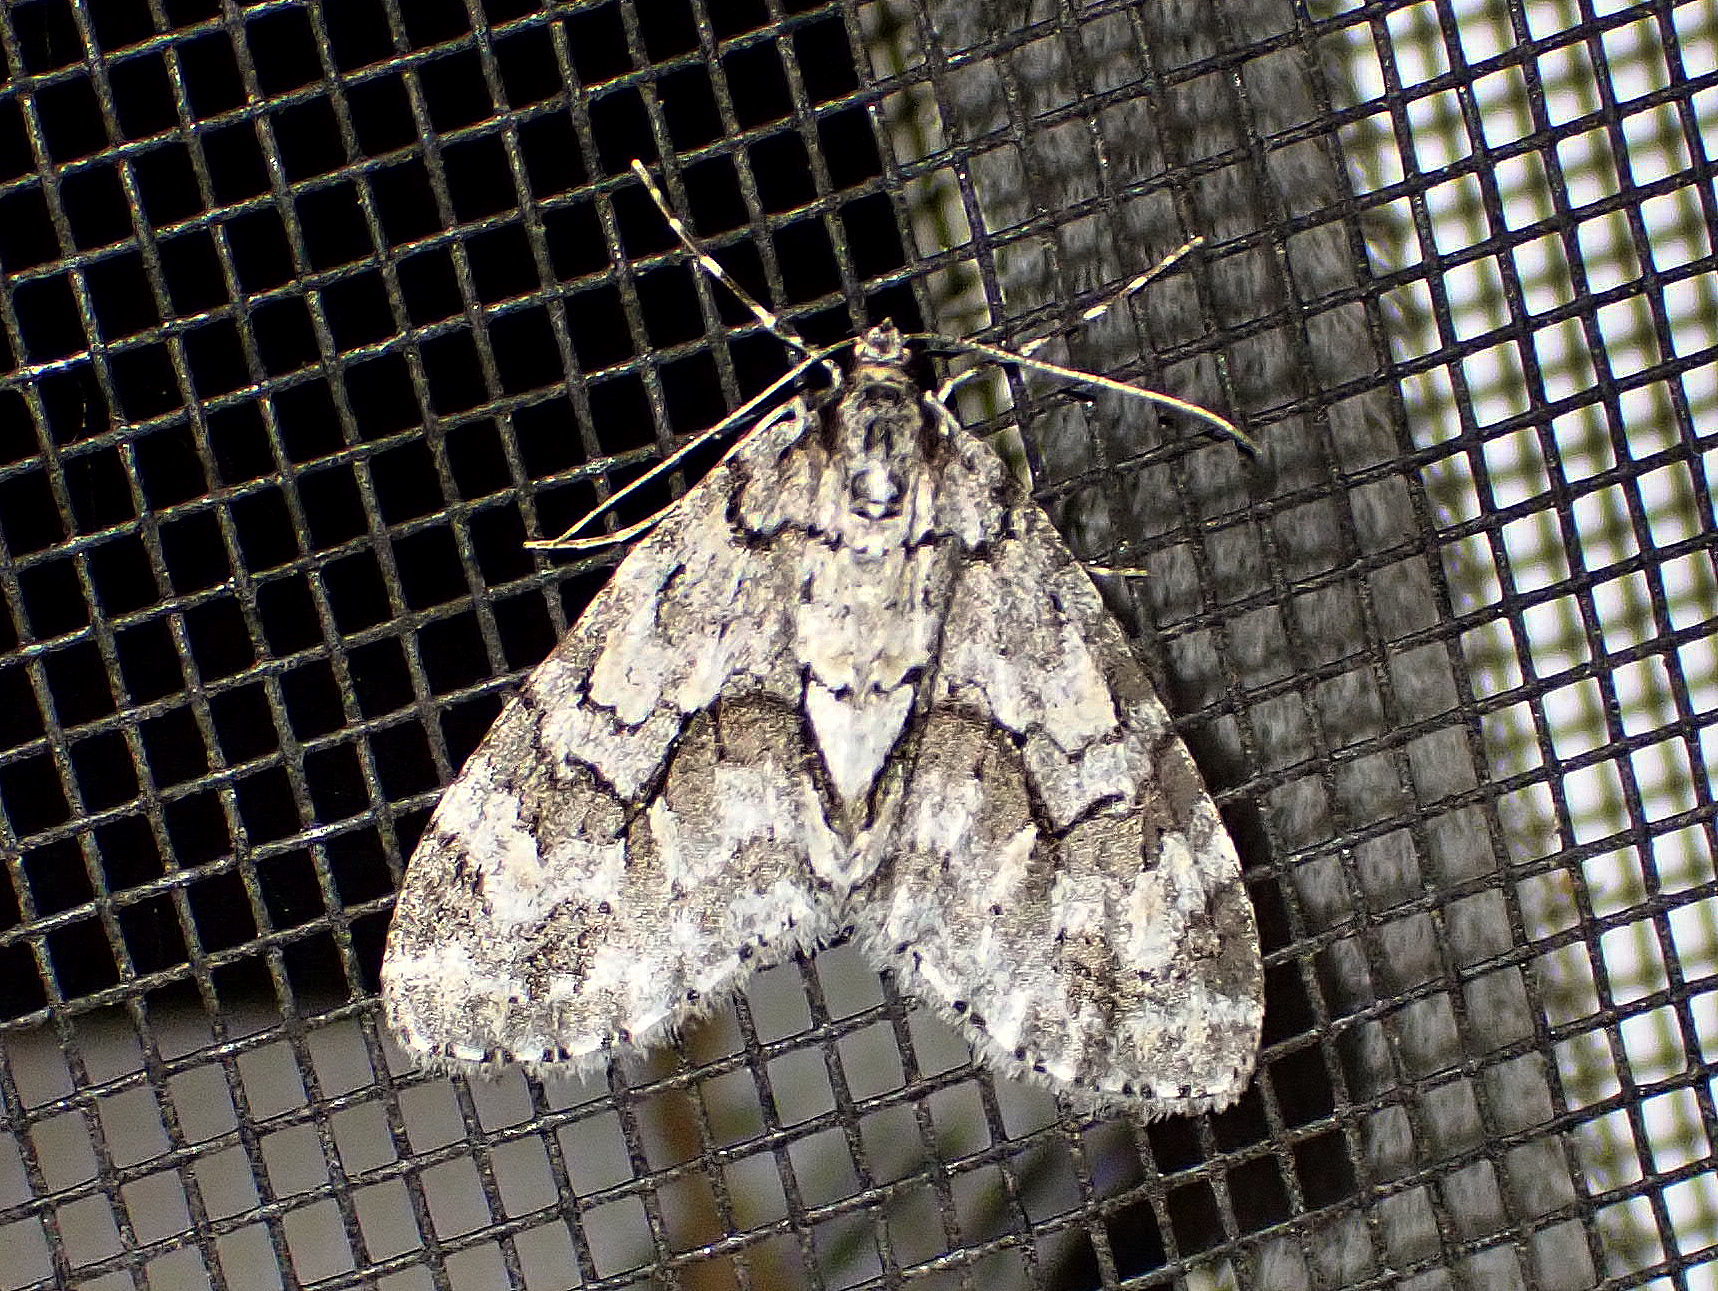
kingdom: Animalia
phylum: Arthropoda
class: Insecta
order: Lepidoptera
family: Geometridae
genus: Cladara
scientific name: Cladara limitaria
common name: Mottled gray carpet
